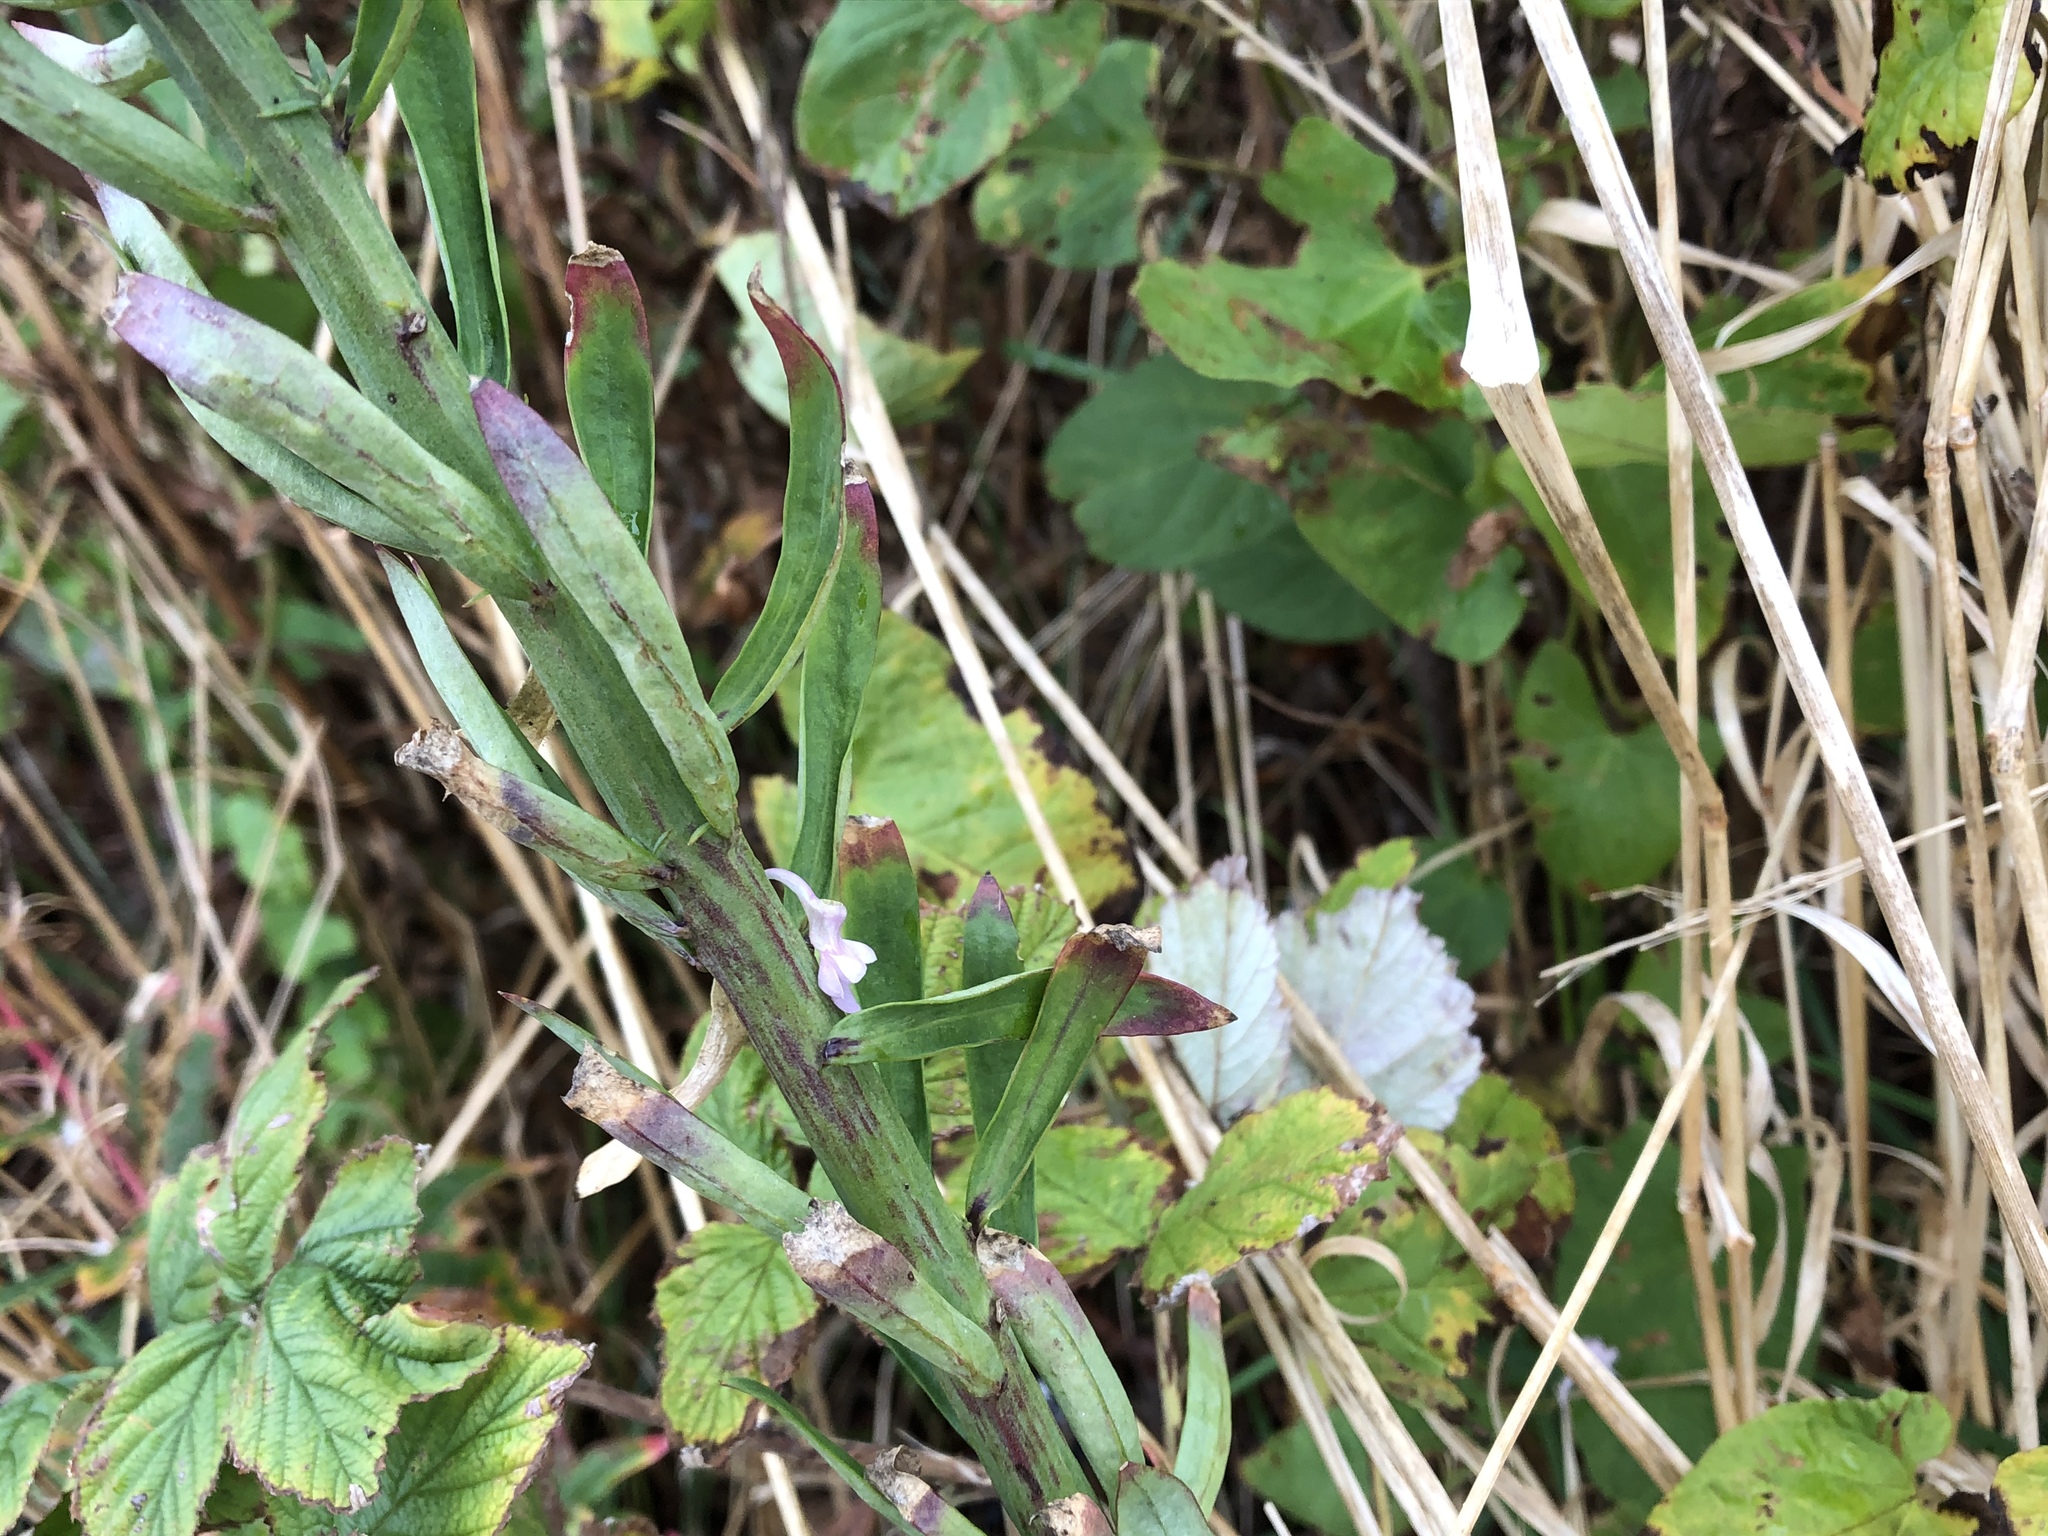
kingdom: Plantae
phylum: Tracheophyta
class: Magnoliopsida
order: Lamiales
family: Plantaginaceae
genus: Linaria
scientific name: Linaria purpurea
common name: Purple toadflax
